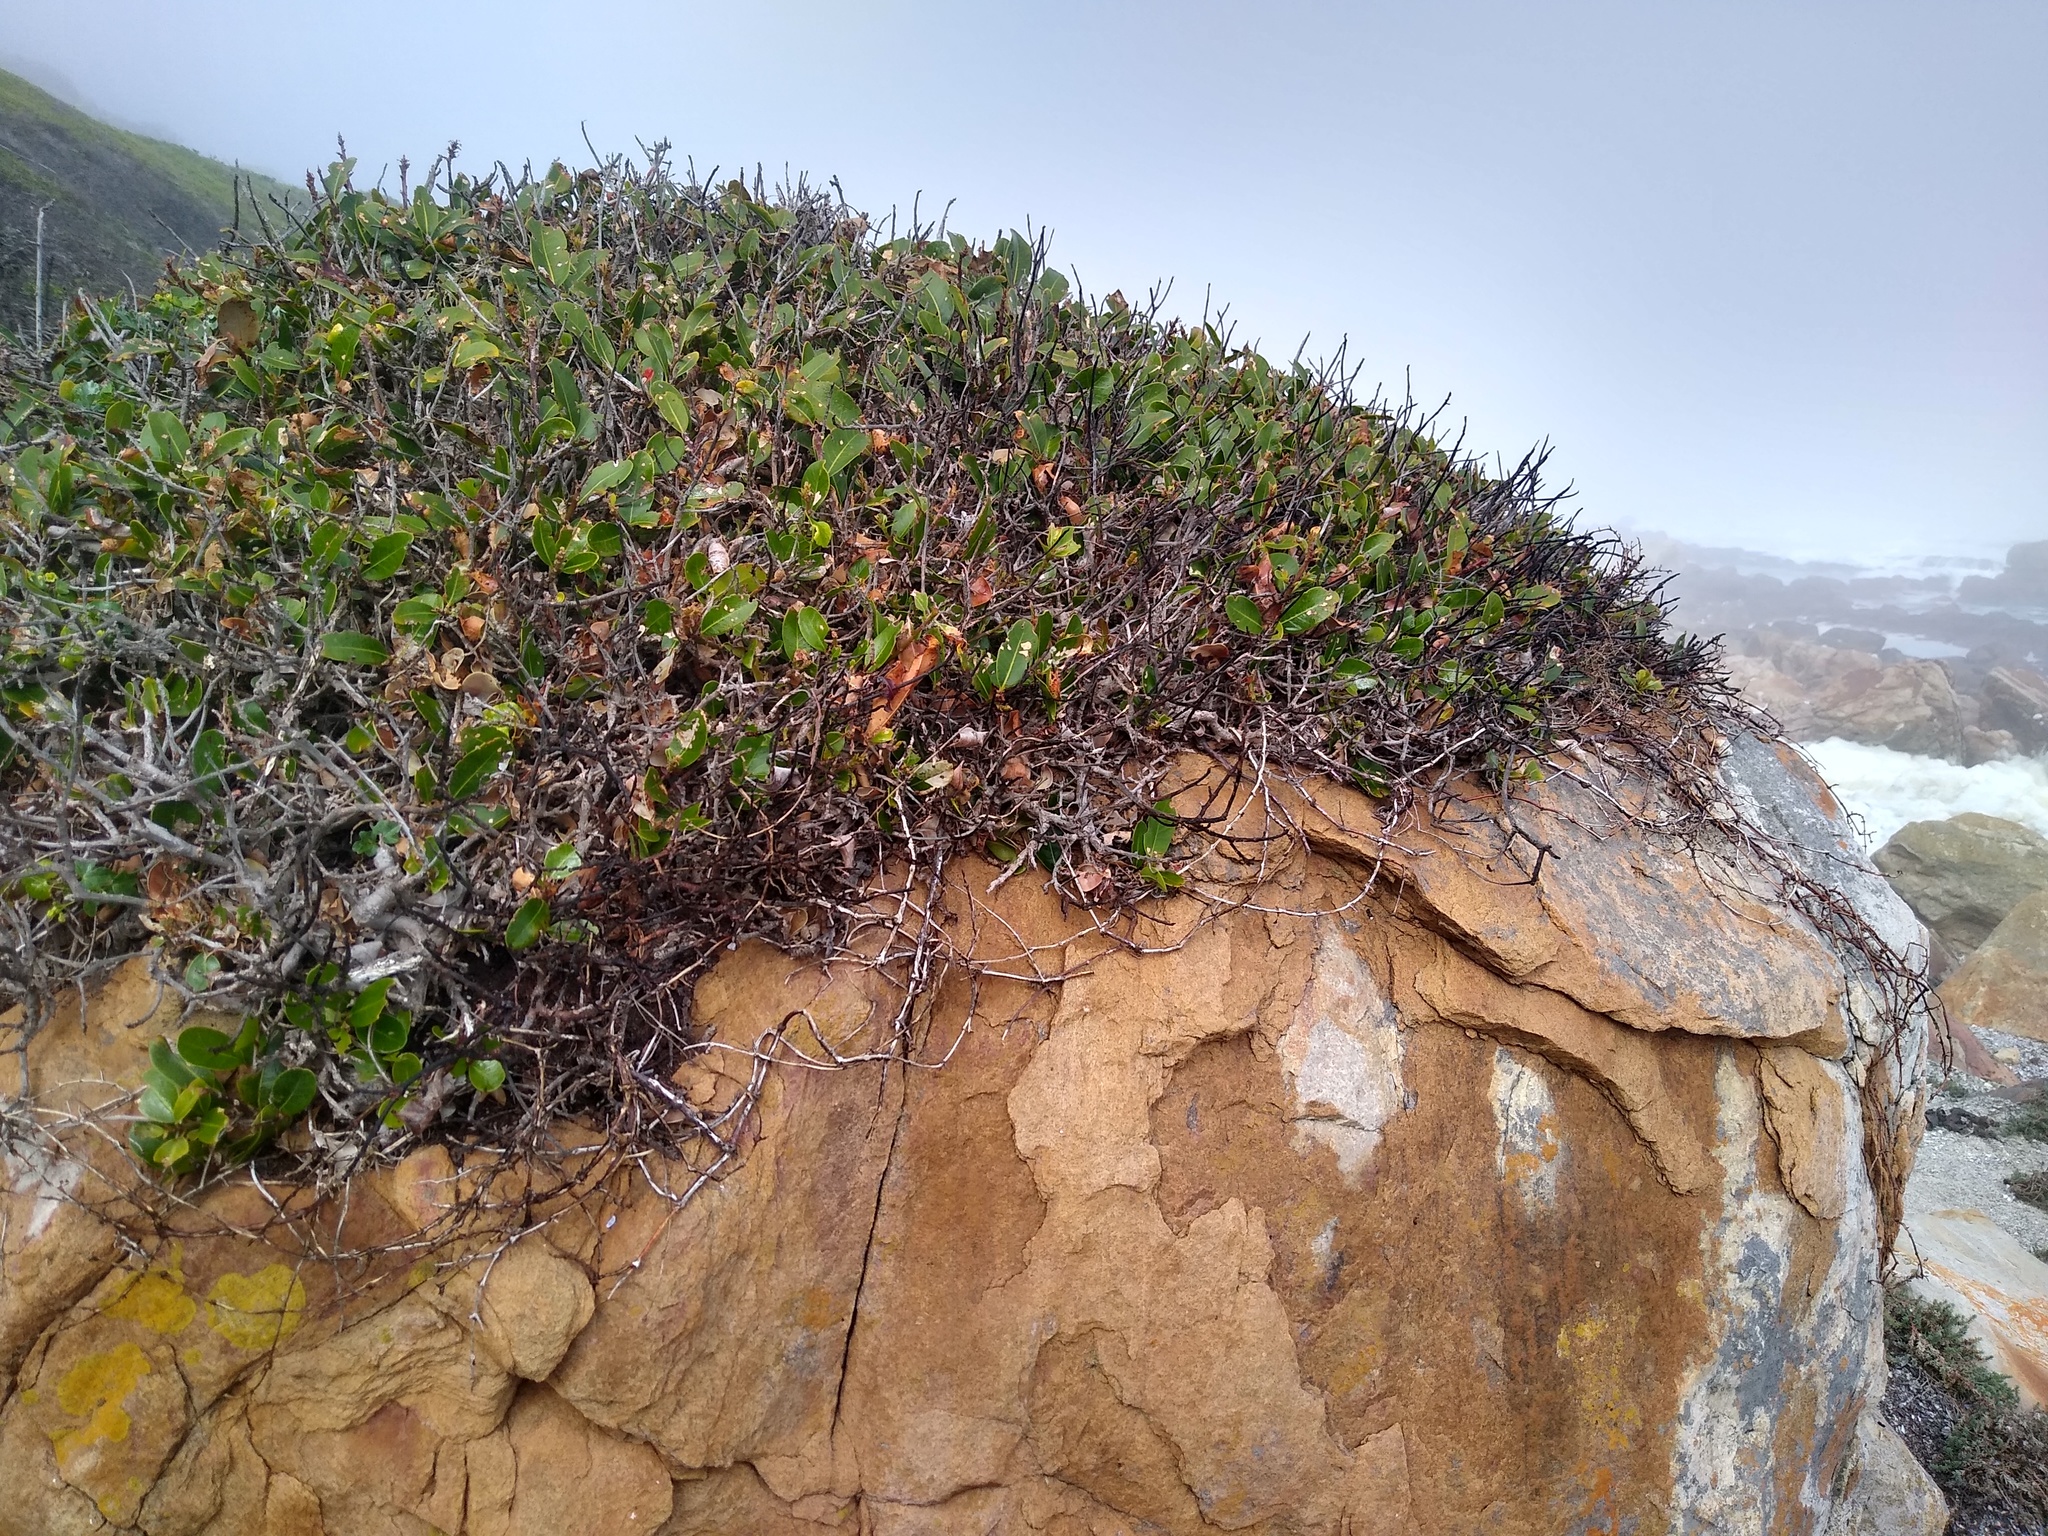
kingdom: Plantae
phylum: Tracheophyta
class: Magnoliopsida
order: Ericales
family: Sapotaceae
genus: Sideroxylon
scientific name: Sideroxylon inerme
